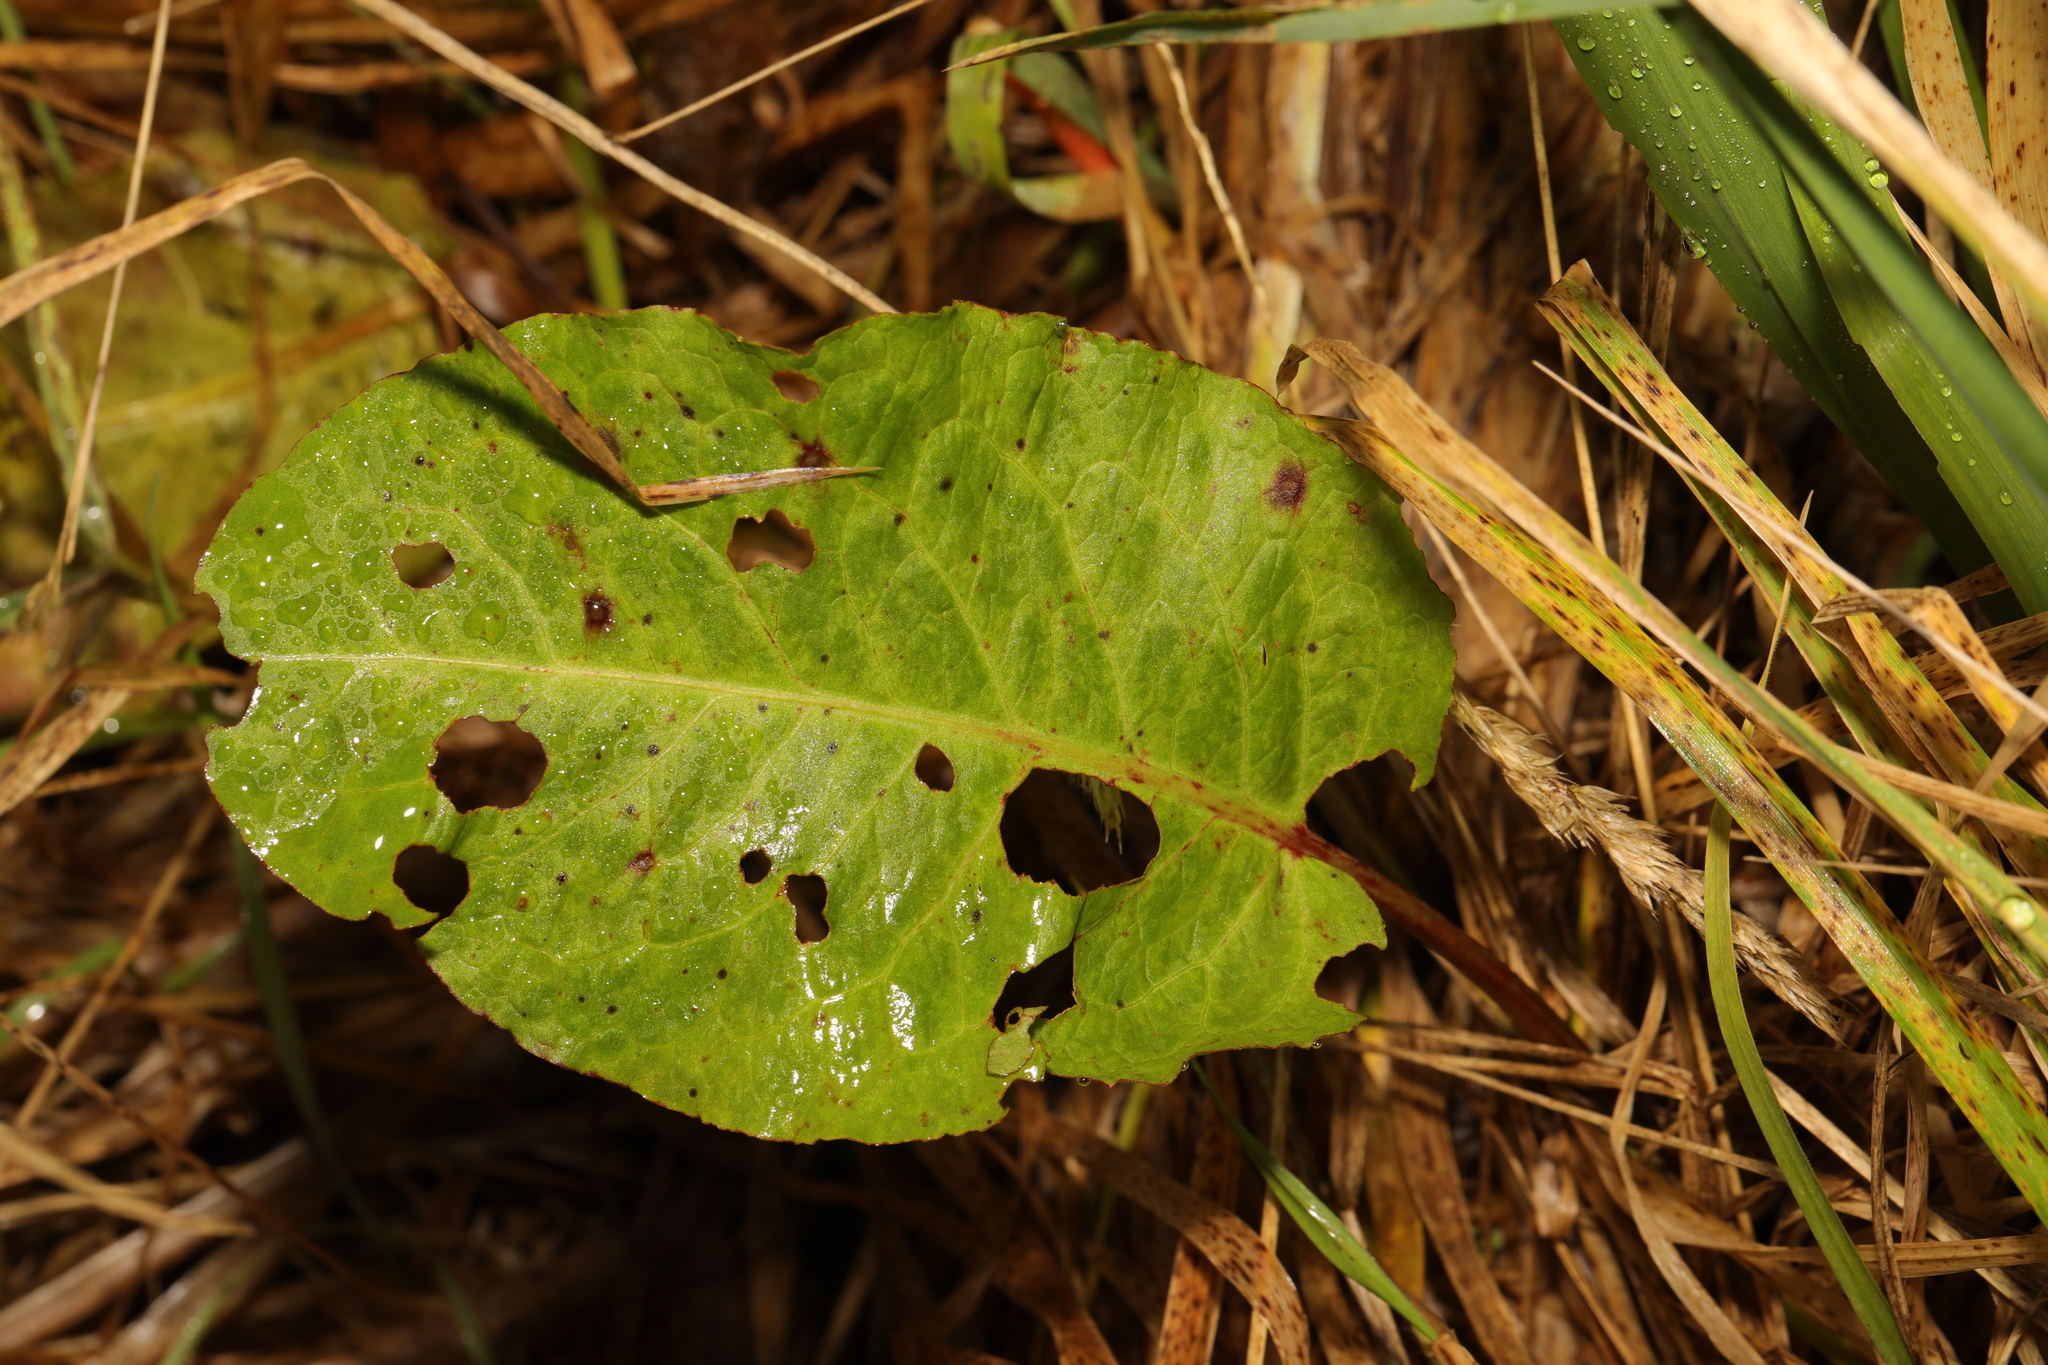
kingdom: Plantae
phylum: Tracheophyta
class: Magnoliopsida
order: Caryophyllales
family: Polygonaceae
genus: Rumex
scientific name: Rumex obtusifolius
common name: Bitter dock
